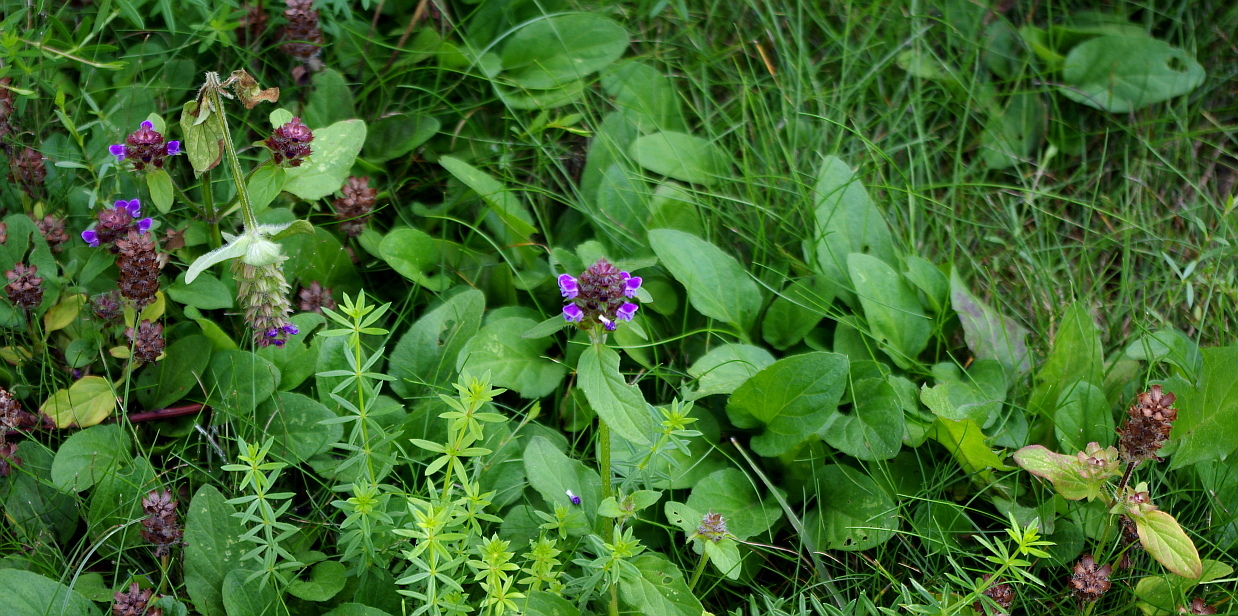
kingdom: Plantae
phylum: Tracheophyta
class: Magnoliopsida
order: Lamiales
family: Lamiaceae
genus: Prunella
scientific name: Prunella vulgaris
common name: Heal-all
